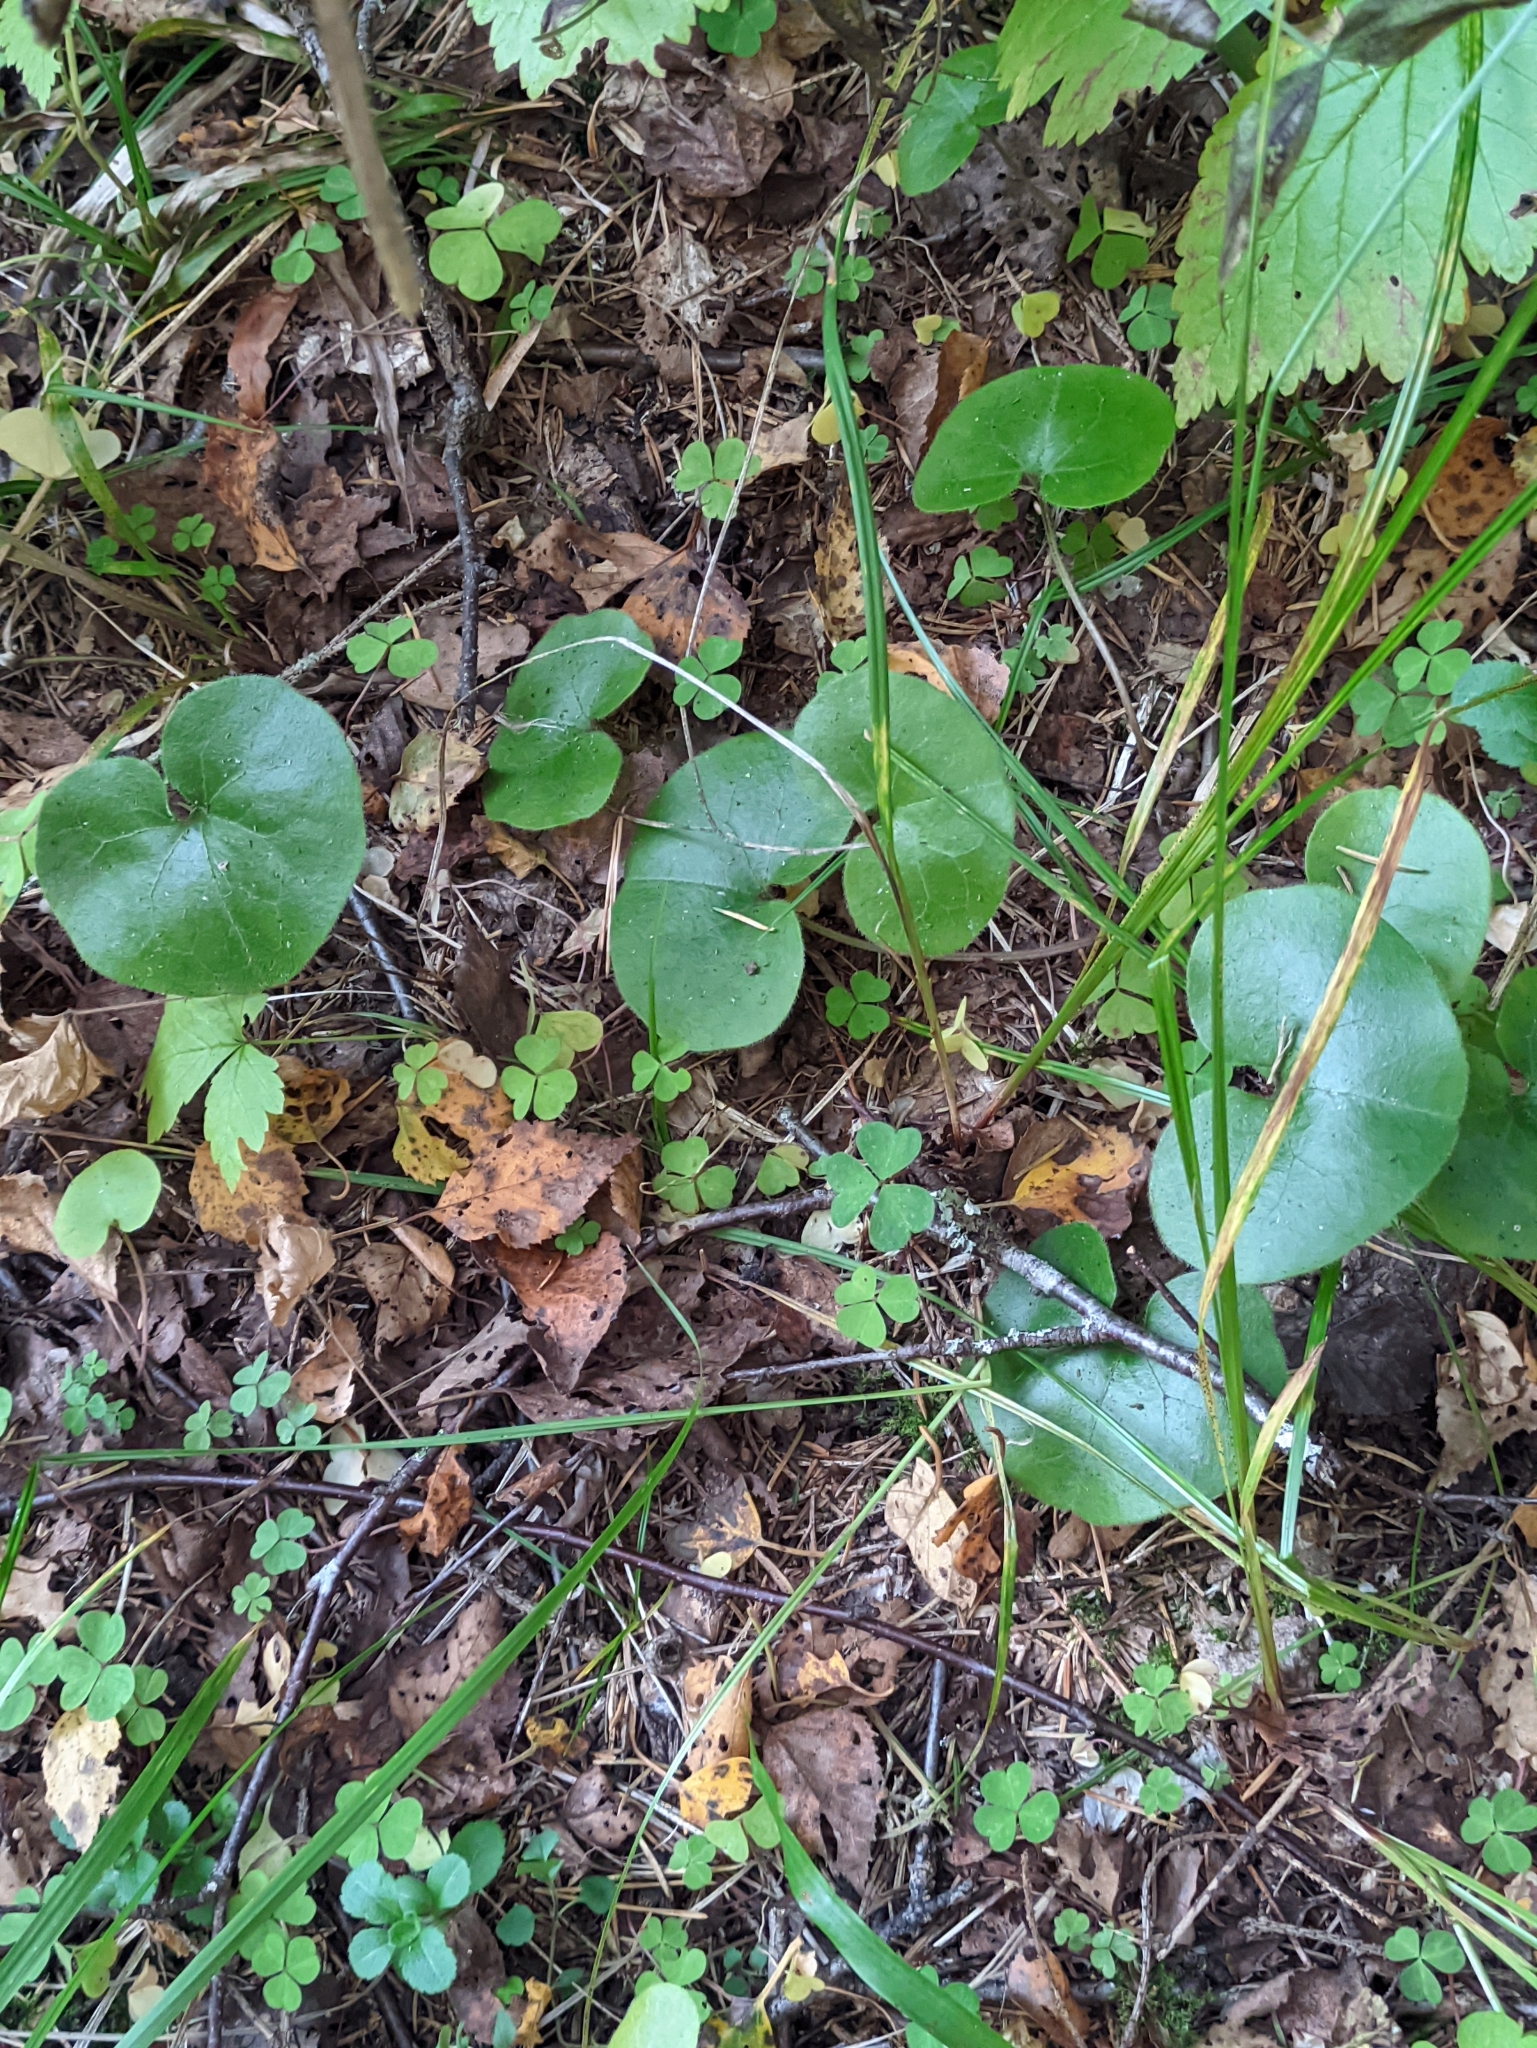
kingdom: Plantae
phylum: Tracheophyta
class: Magnoliopsida
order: Piperales
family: Aristolochiaceae
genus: Asarum
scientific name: Asarum europaeum
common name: Asarabacca
